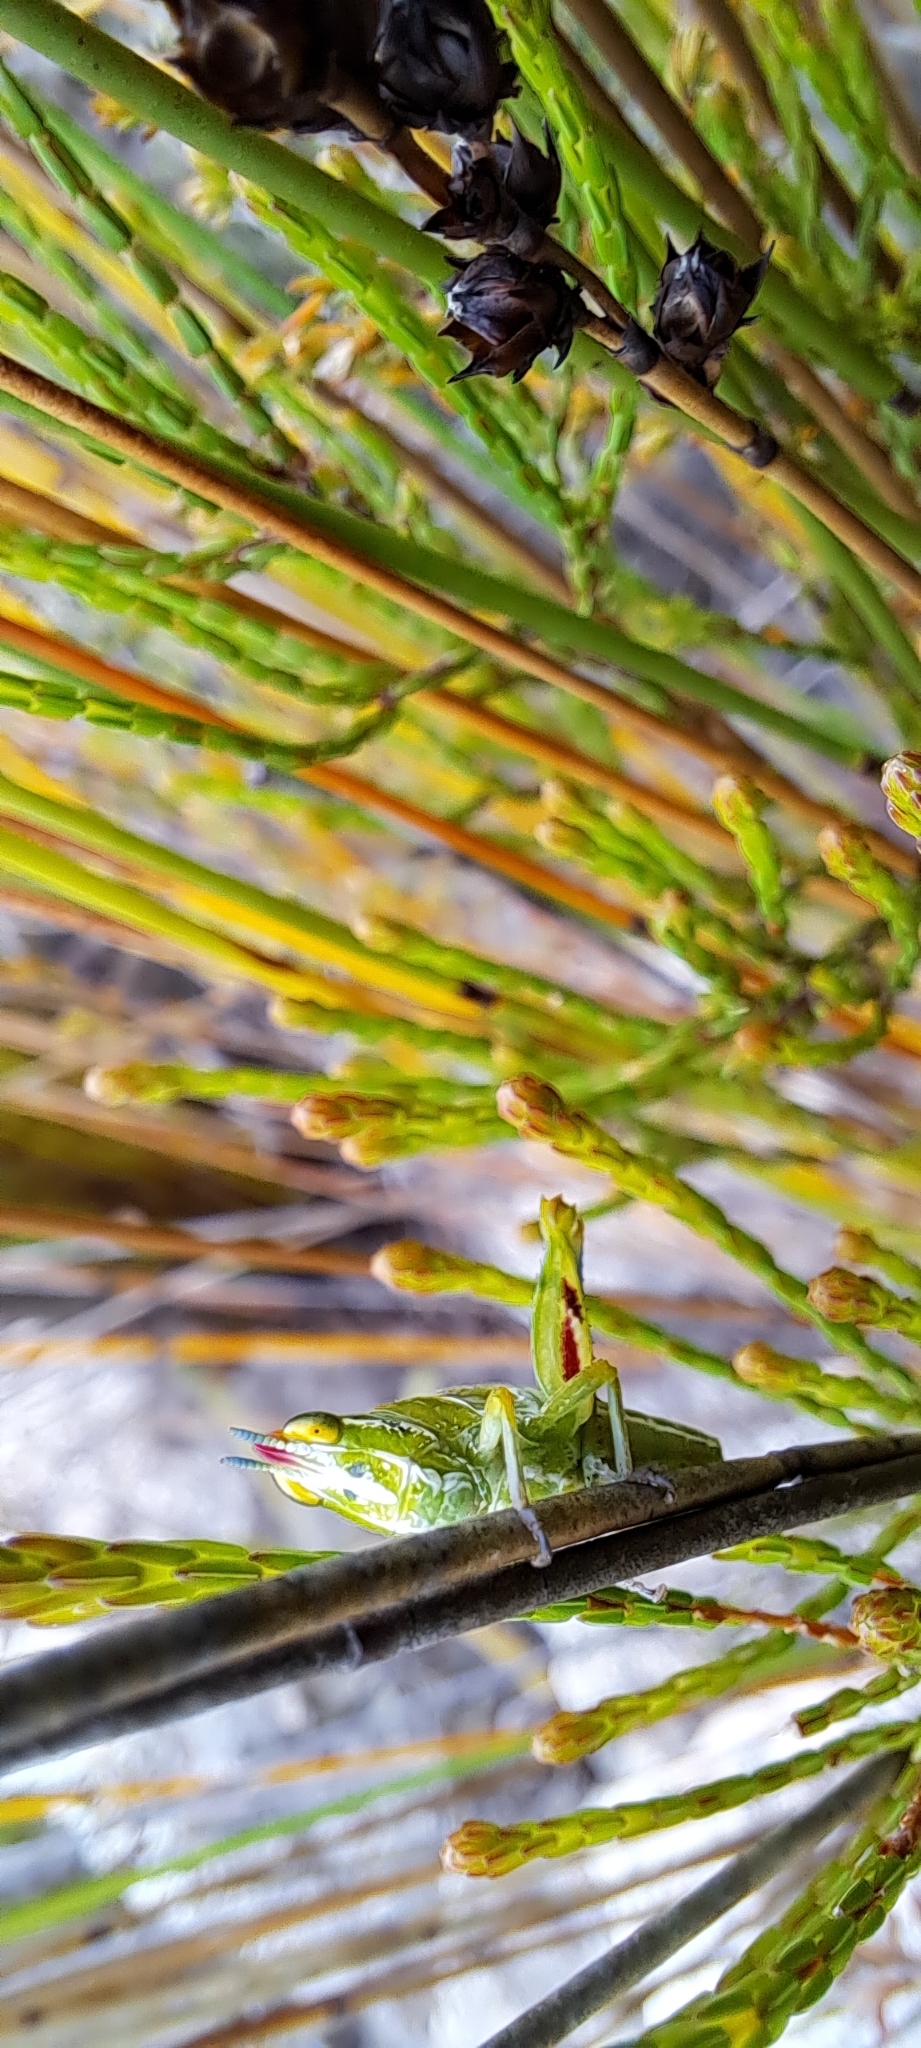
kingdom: Animalia
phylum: Arthropoda
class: Insecta
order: Orthoptera
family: Thericleidae
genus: Thericlesiella
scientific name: Thericlesiella meridionalis
